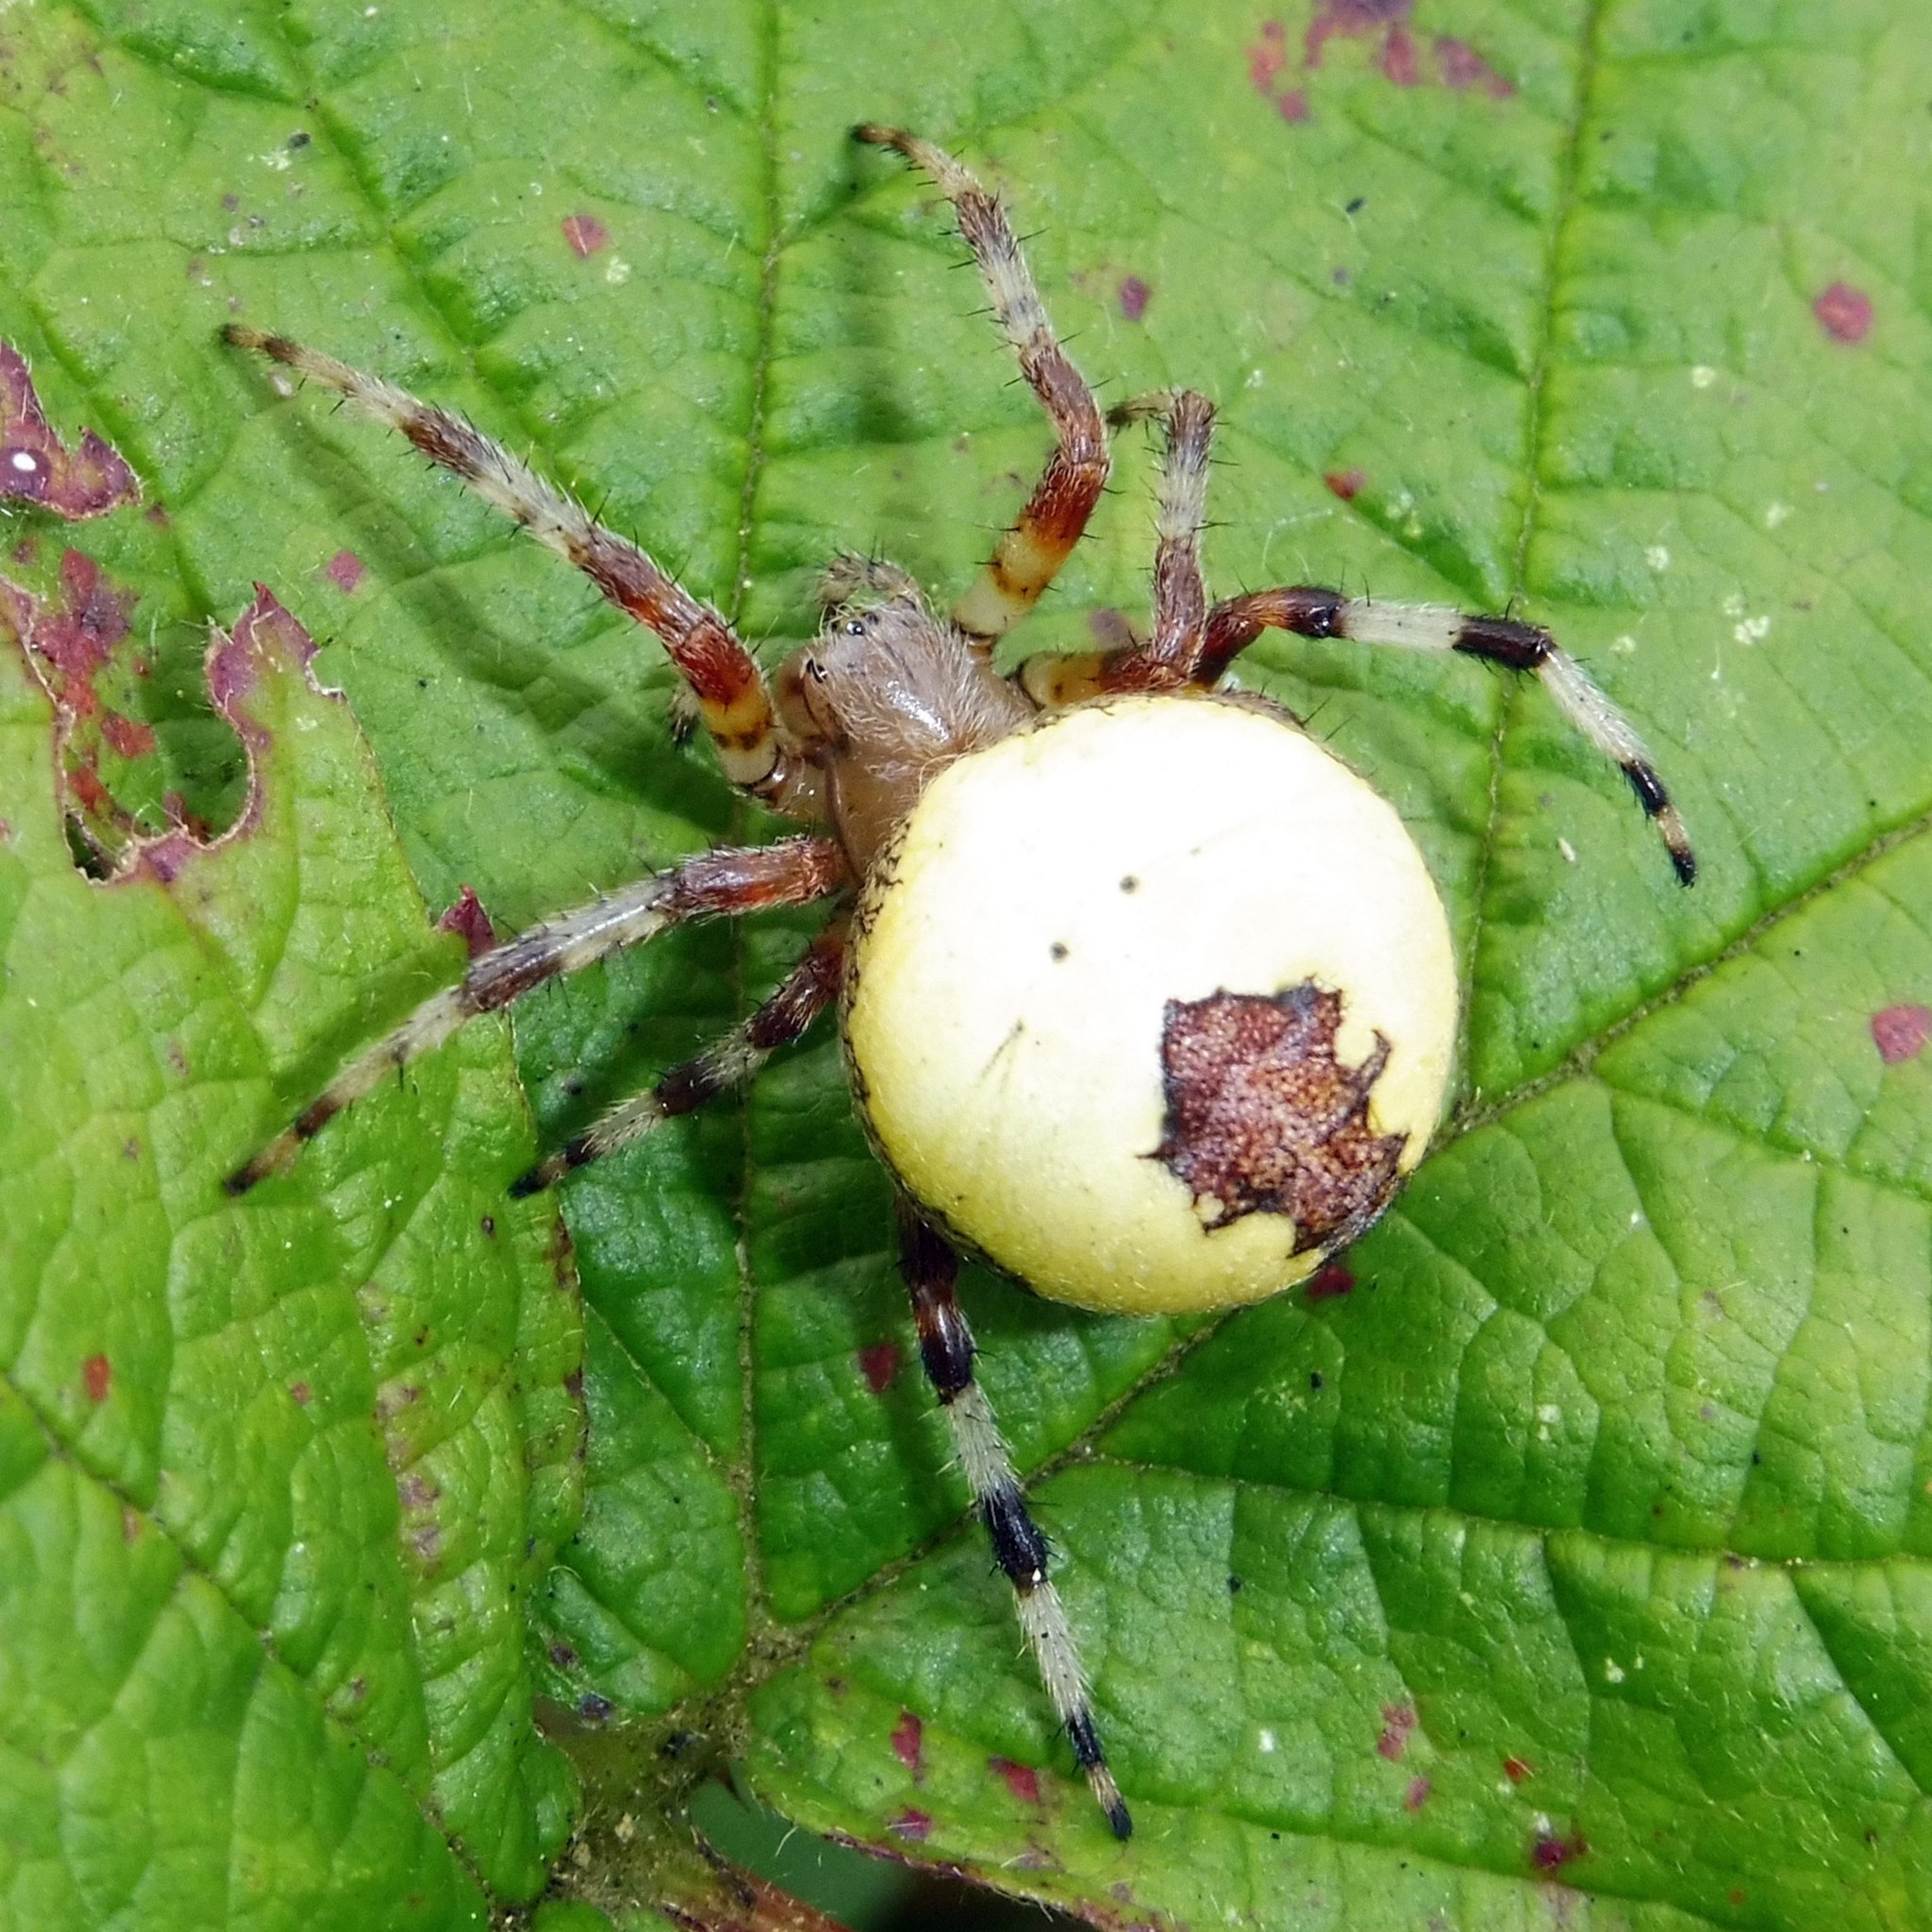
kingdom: Animalia
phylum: Arthropoda
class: Arachnida
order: Araneae
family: Araneidae
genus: Araneus
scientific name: Araneus marmoreus
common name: Marbled orbweaver
